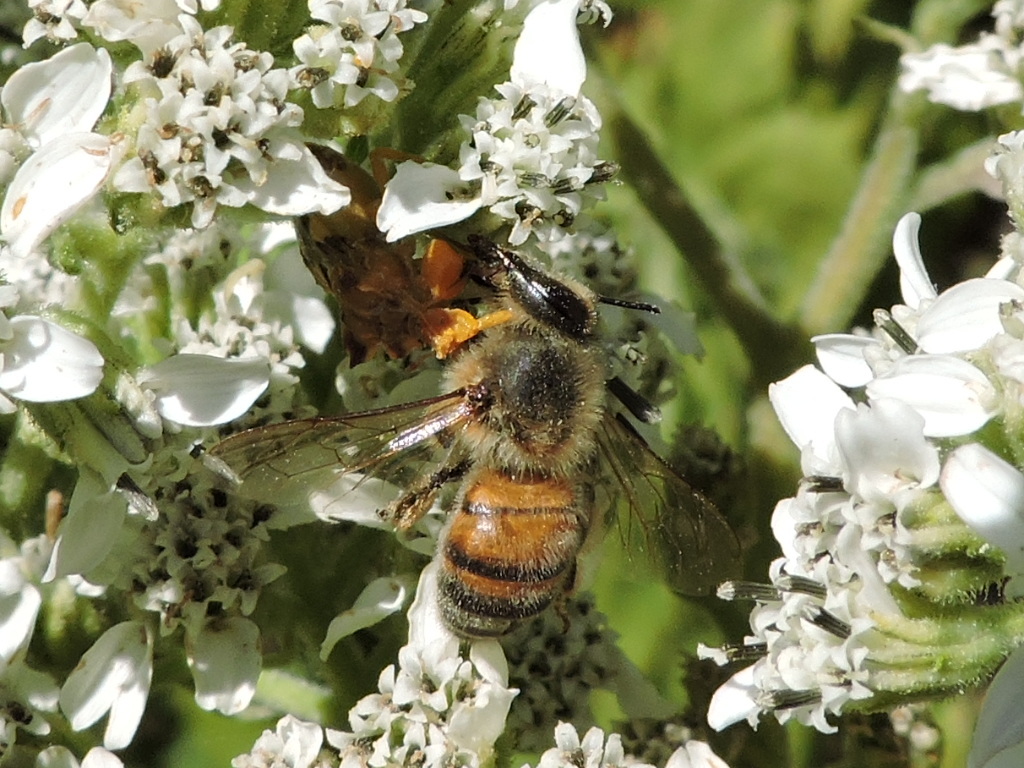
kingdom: Animalia
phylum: Arthropoda
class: Insecta
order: Hymenoptera
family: Apidae
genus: Apis
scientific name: Apis mellifera
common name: Honey bee
